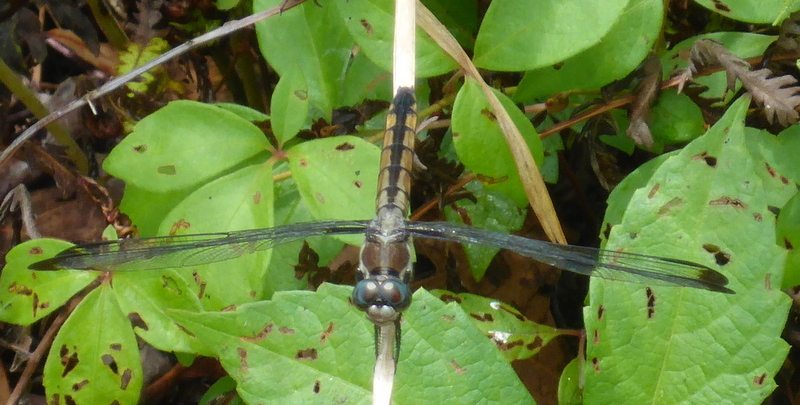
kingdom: Animalia
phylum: Arthropoda
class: Insecta
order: Odonata
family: Libellulidae
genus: Libellula
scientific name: Libellula vibrans
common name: Great blue skimmer
